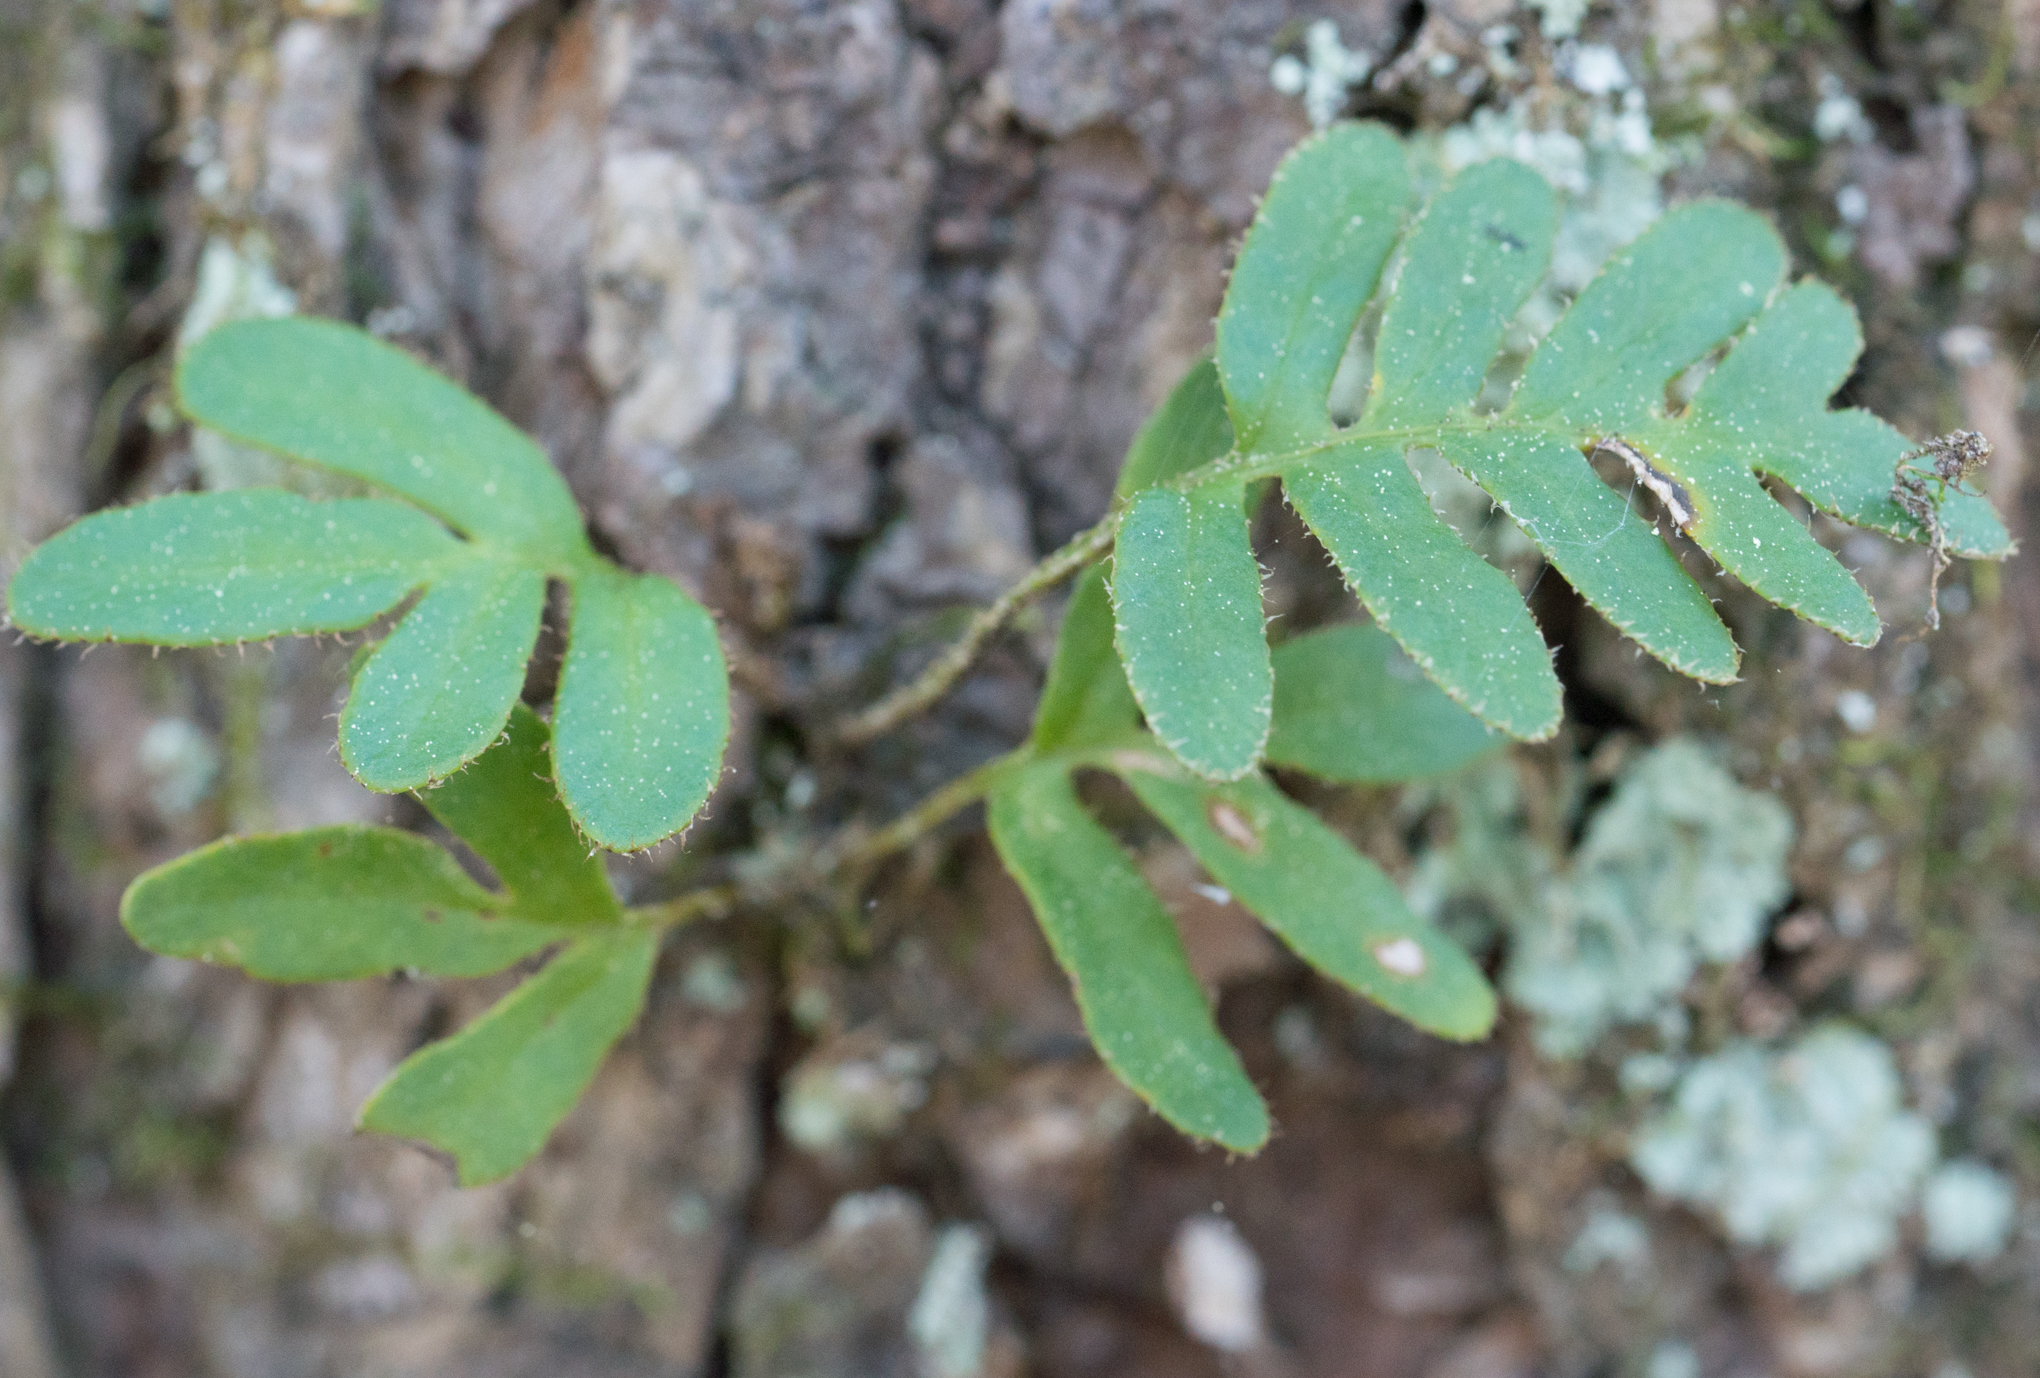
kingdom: Plantae
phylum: Tracheophyta
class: Polypodiopsida
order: Polypodiales
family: Polypodiaceae
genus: Pleopeltis
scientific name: Pleopeltis michauxiana
